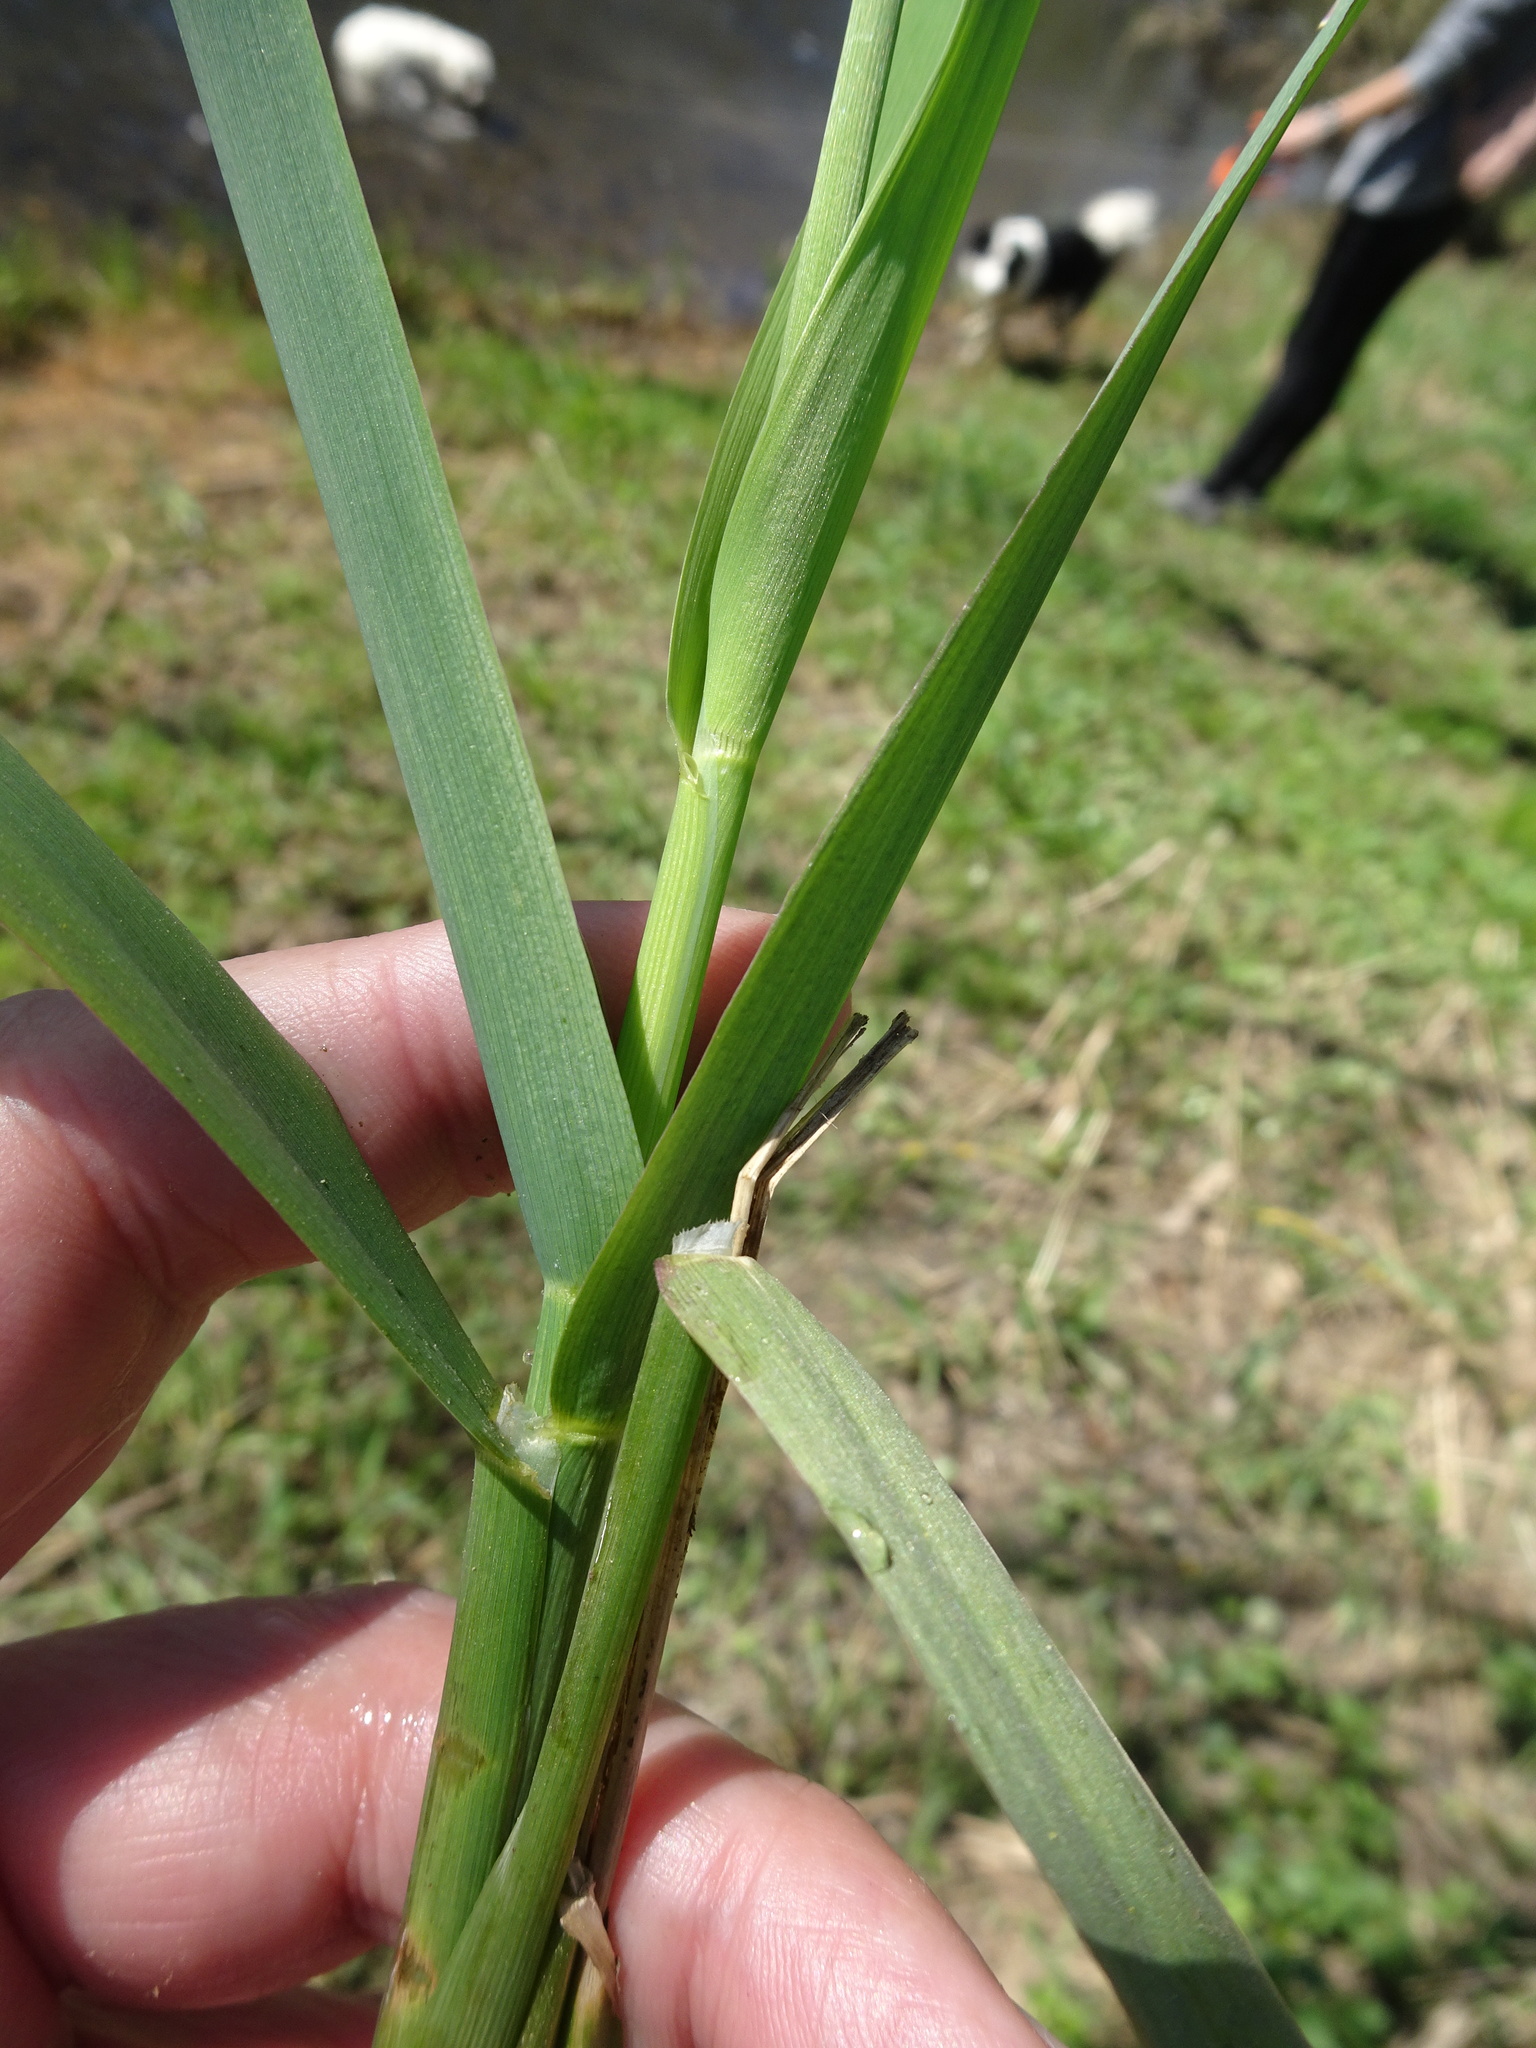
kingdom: Plantae
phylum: Tracheophyta
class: Liliopsida
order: Poales
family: Poaceae
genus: Phalaris
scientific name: Phalaris arundinacea
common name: Reed canary-grass
